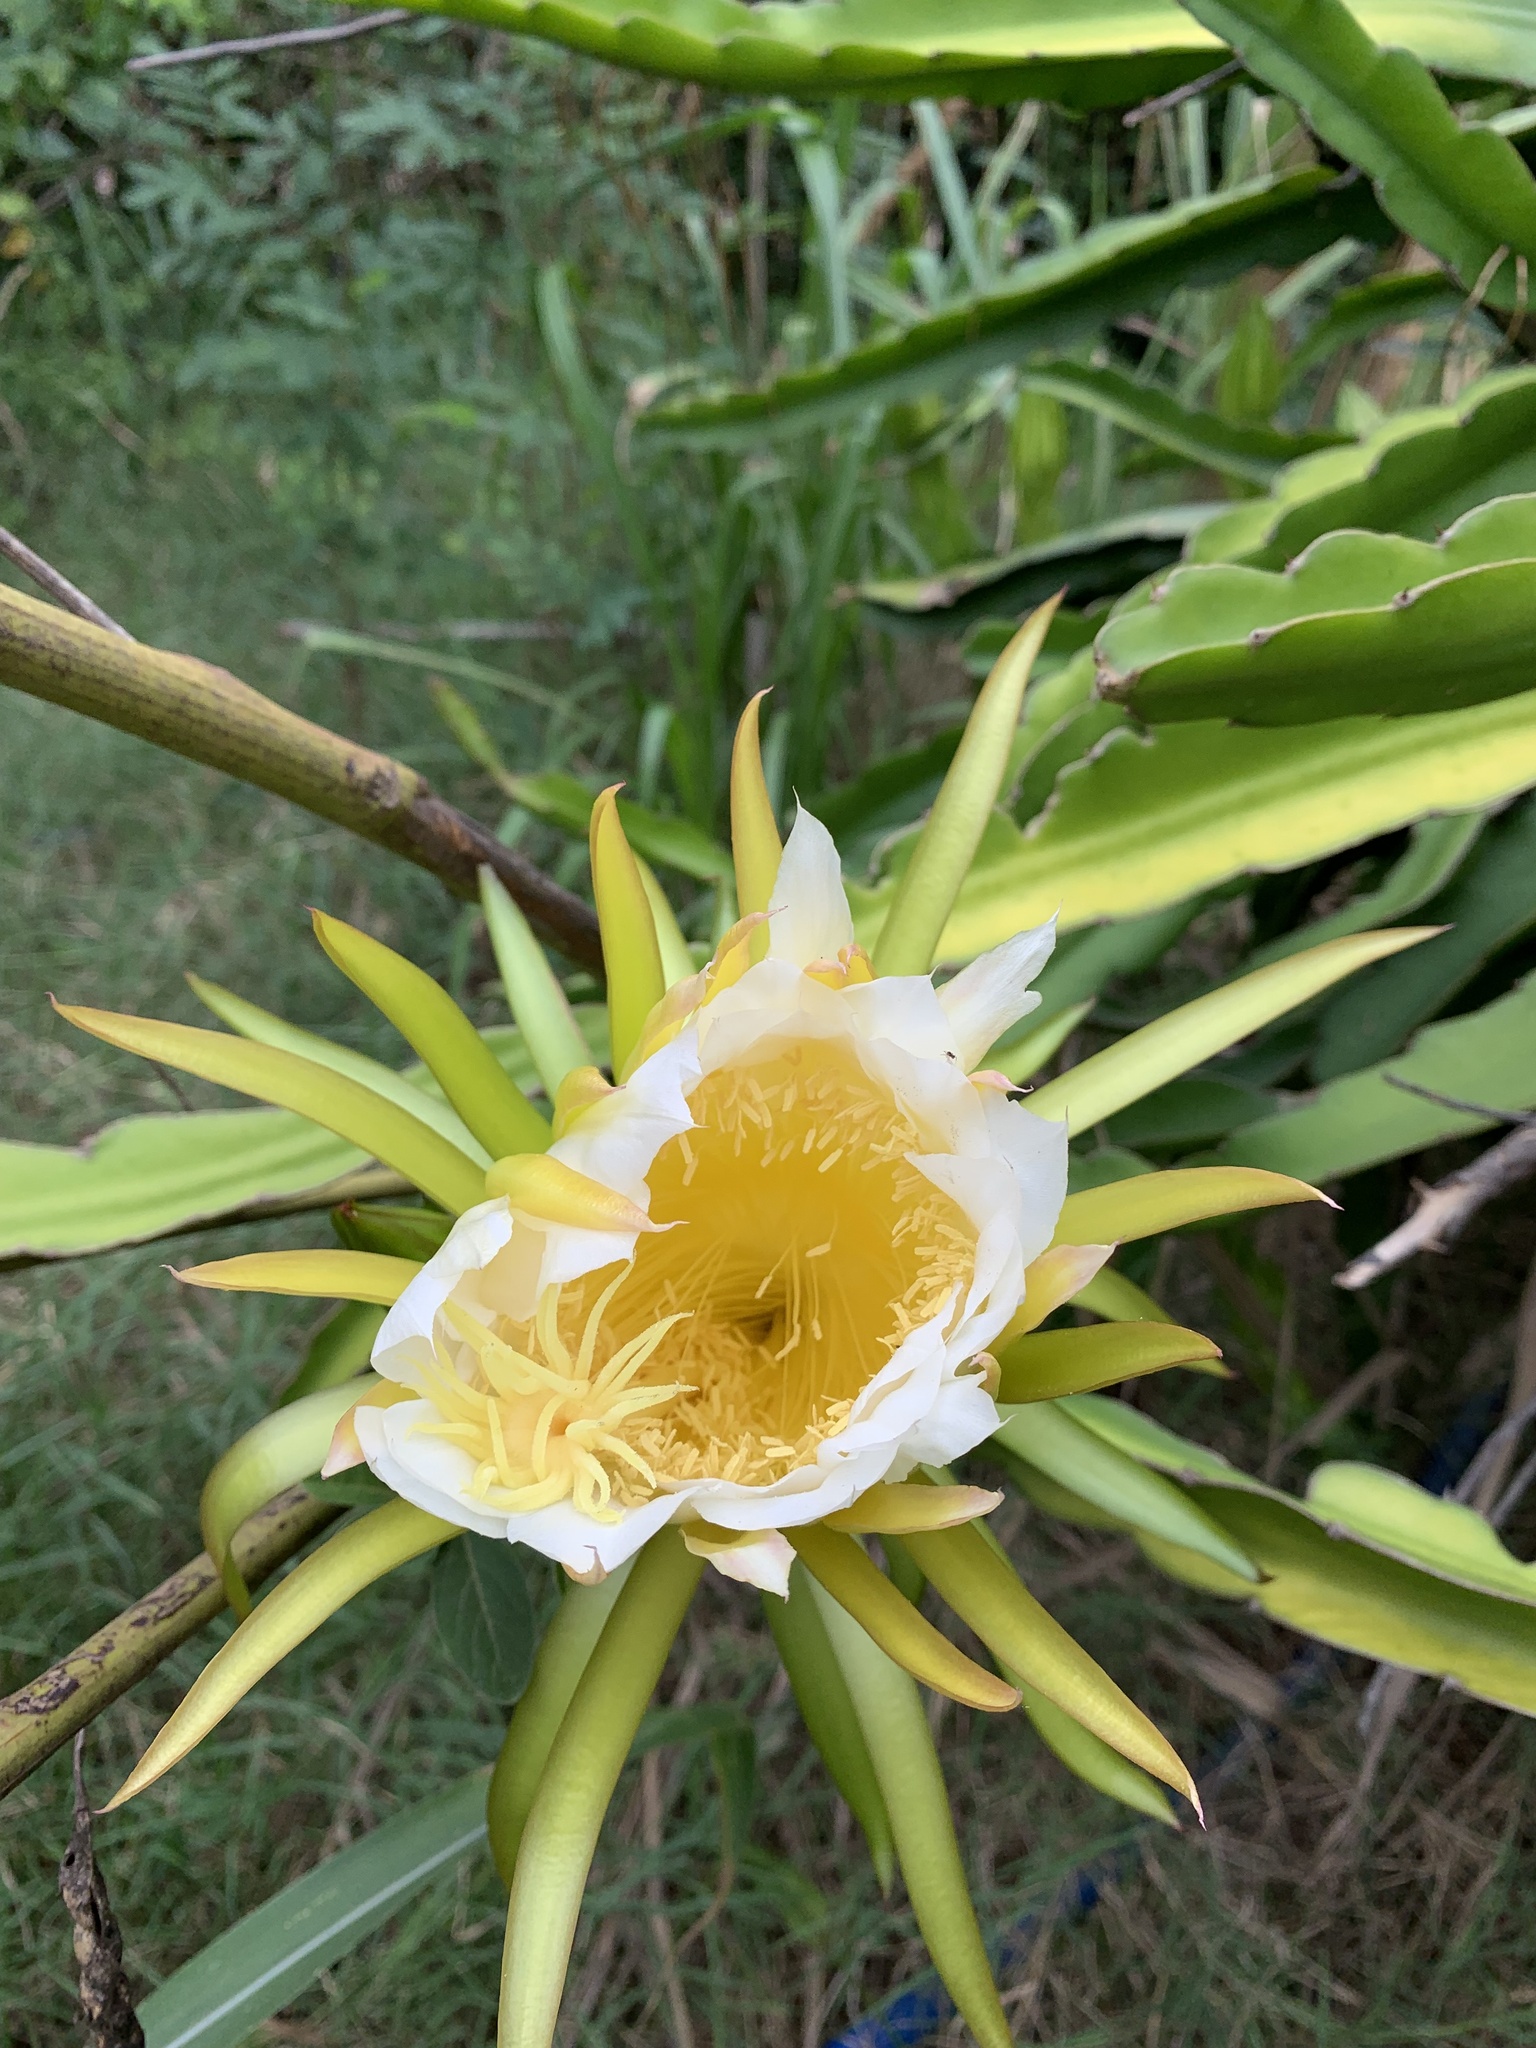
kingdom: Plantae
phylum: Tracheophyta
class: Magnoliopsida
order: Caryophyllales
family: Cactaceae
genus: Selenicereus
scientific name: Selenicereus undatus
